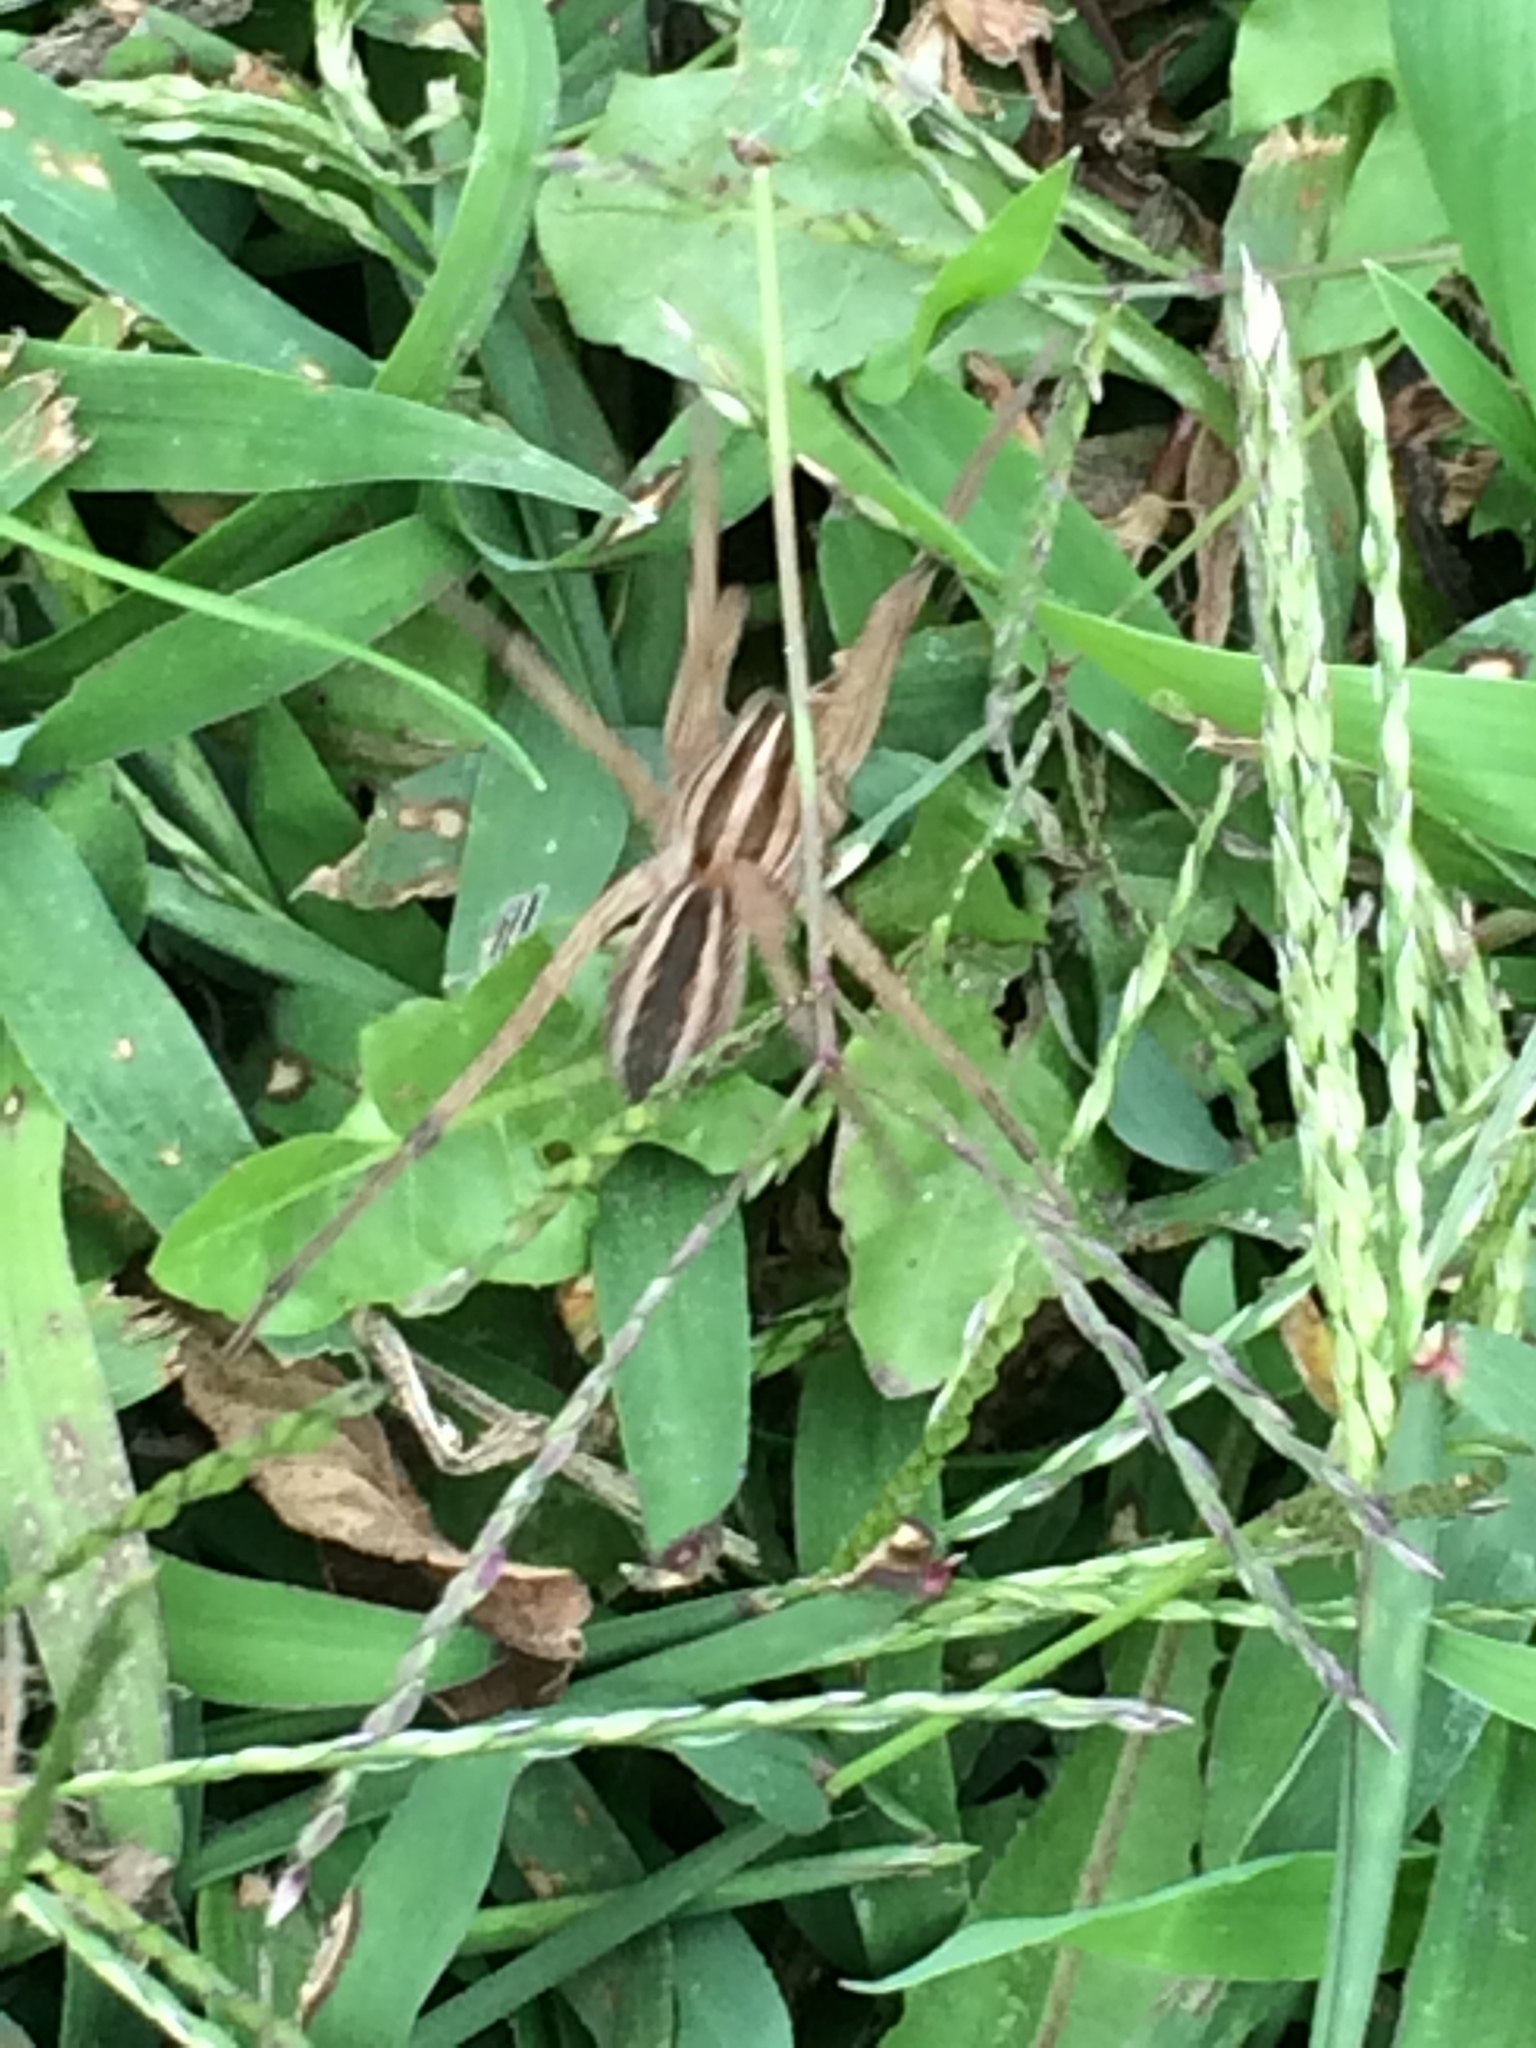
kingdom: Animalia
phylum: Arthropoda
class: Arachnida
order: Araneae
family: Lycosidae
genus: Rabidosa
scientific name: Rabidosa rabida
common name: Rabid wolf spider
